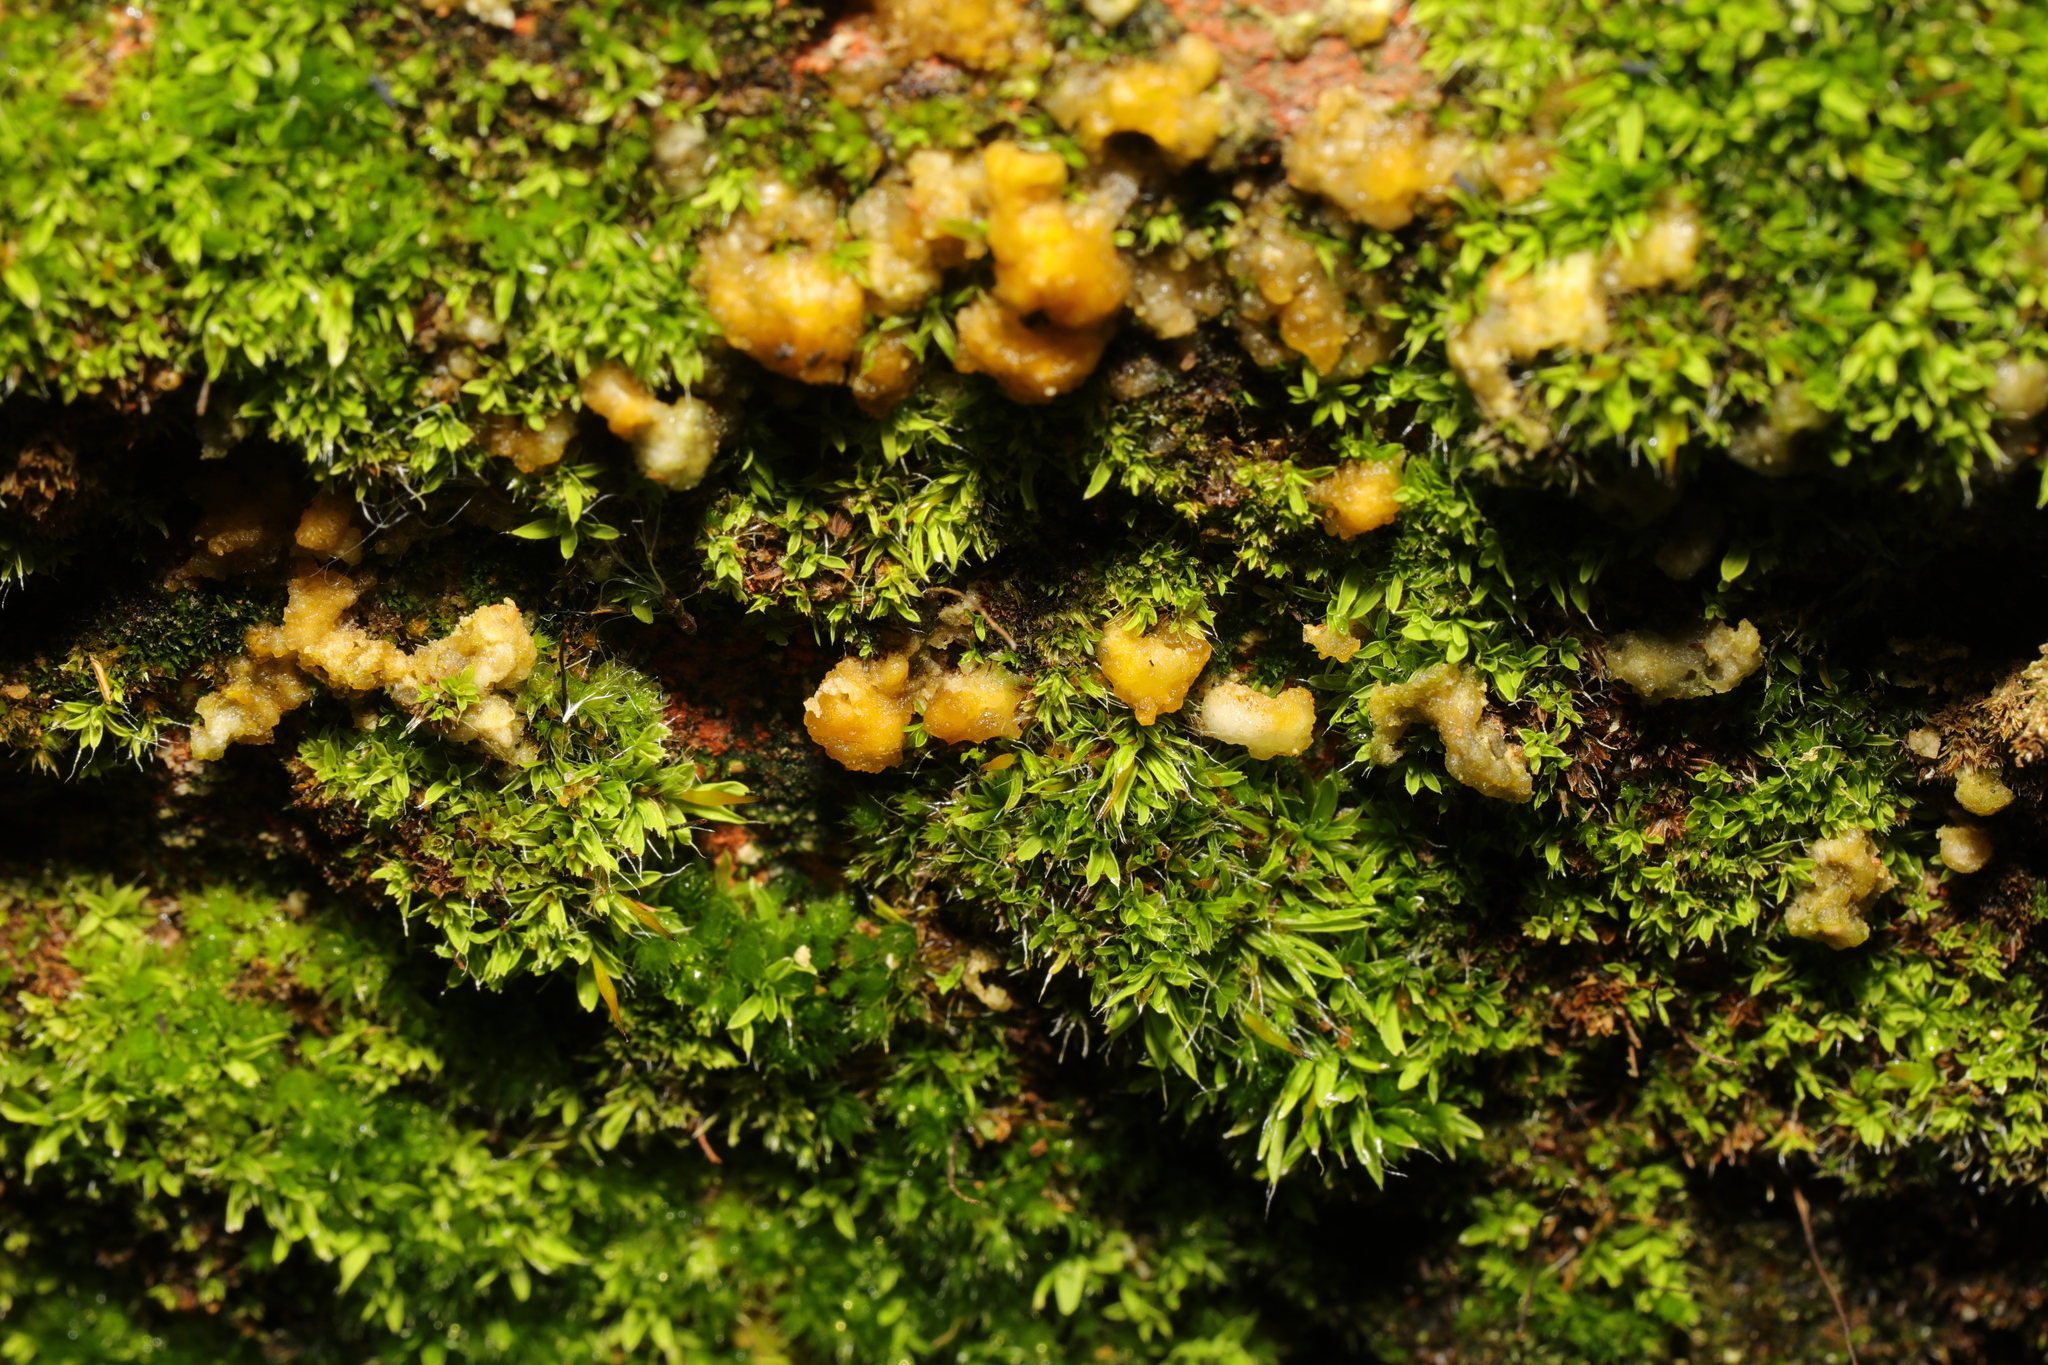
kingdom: Plantae
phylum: Bryophyta
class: Bryopsida
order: Pottiales
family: Pottiaceae
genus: Tortula
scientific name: Tortula muralis
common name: Wall screw-moss
